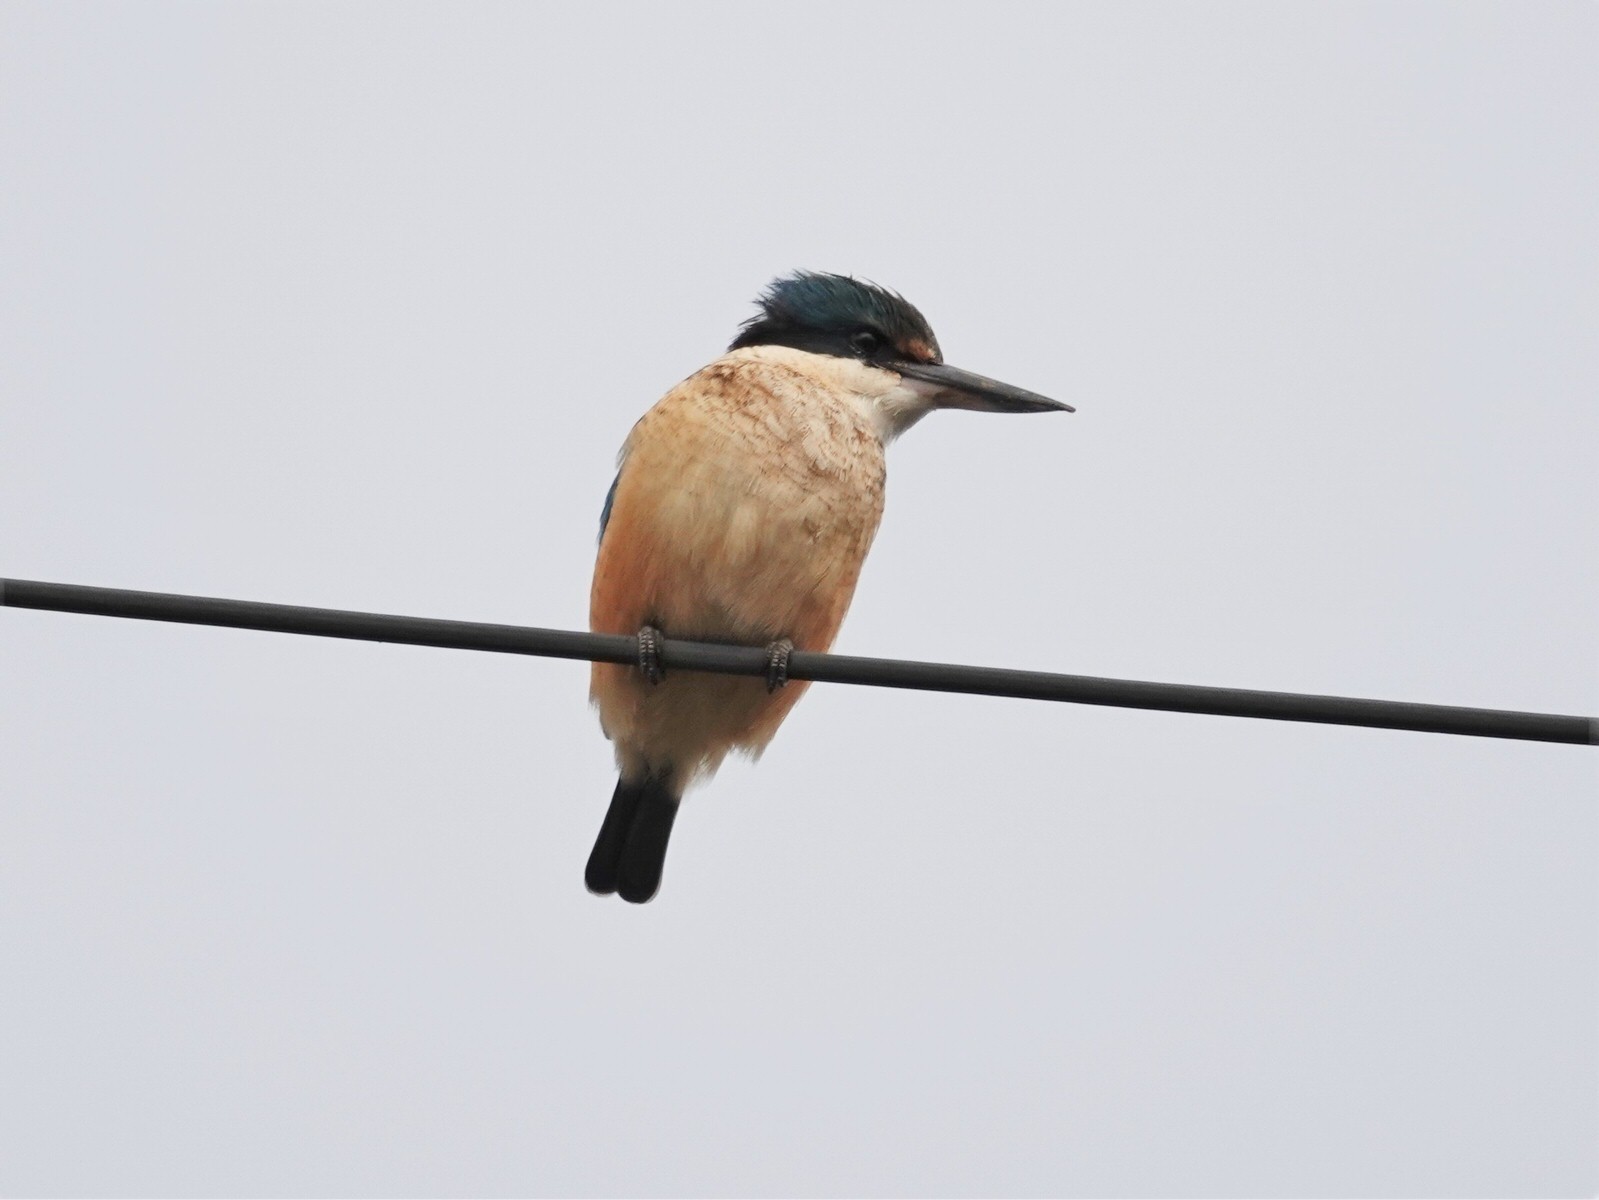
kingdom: Animalia
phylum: Chordata
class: Aves
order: Coraciiformes
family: Alcedinidae
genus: Todiramphus
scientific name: Todiramphus sanctus
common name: Sacred kingfisher
